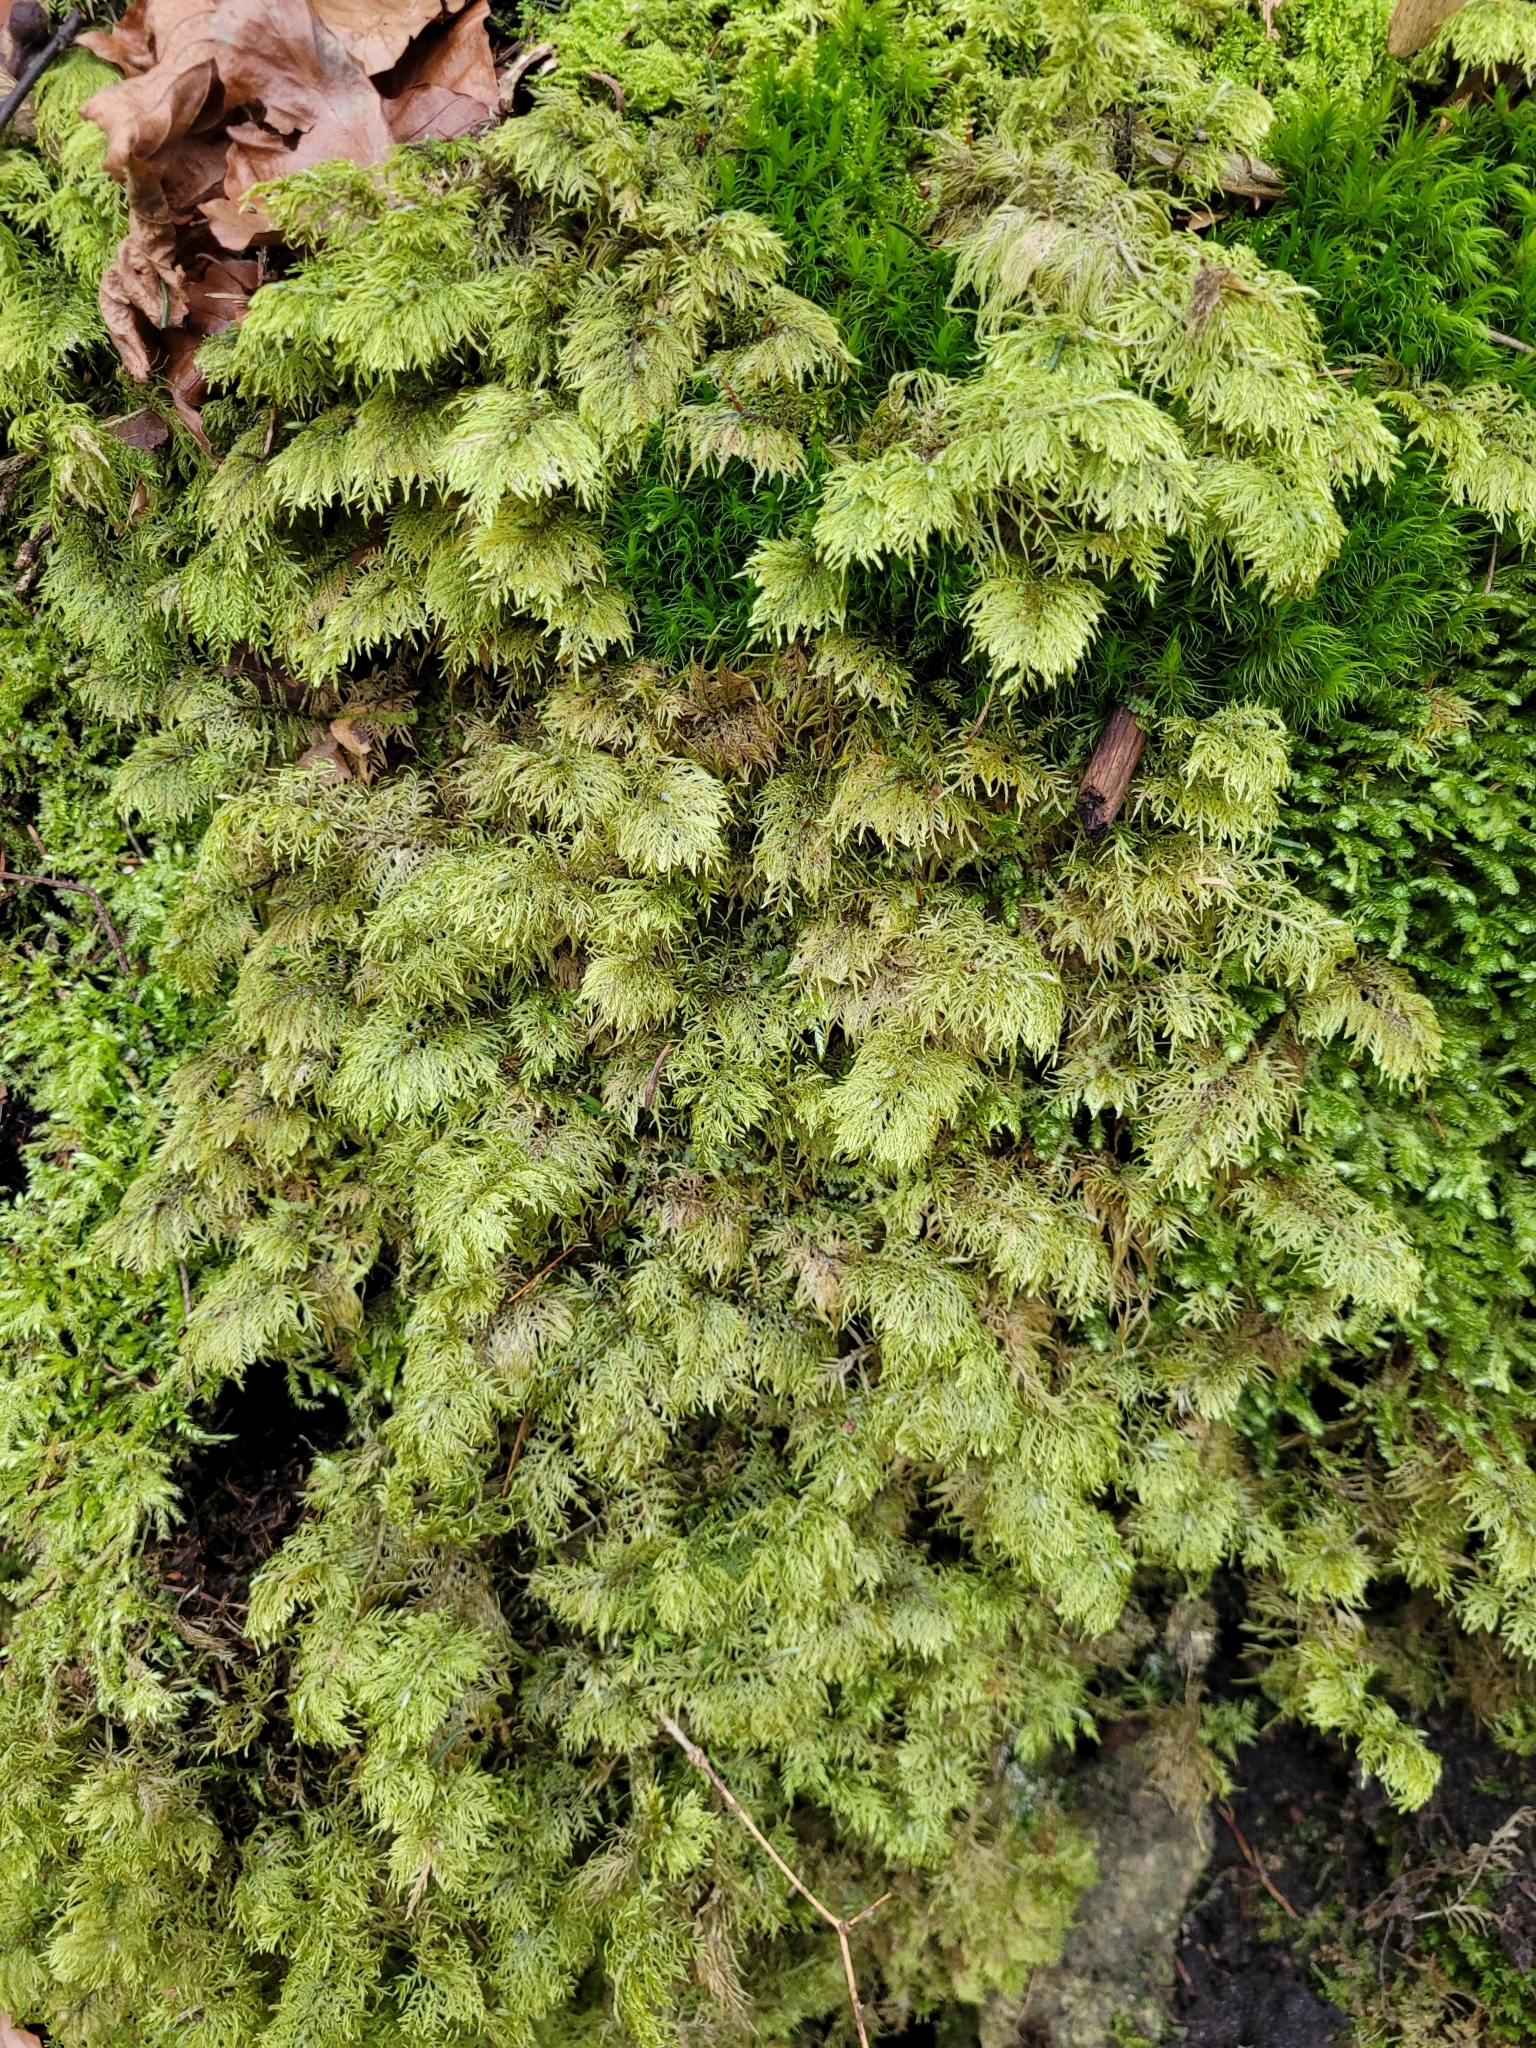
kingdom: Plantae
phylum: Bryophyta
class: Bryopsida
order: Hypnales
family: Hylocomiaceae
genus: Hylocomium
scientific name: Hylocomium splendens
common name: Stairstep moss
